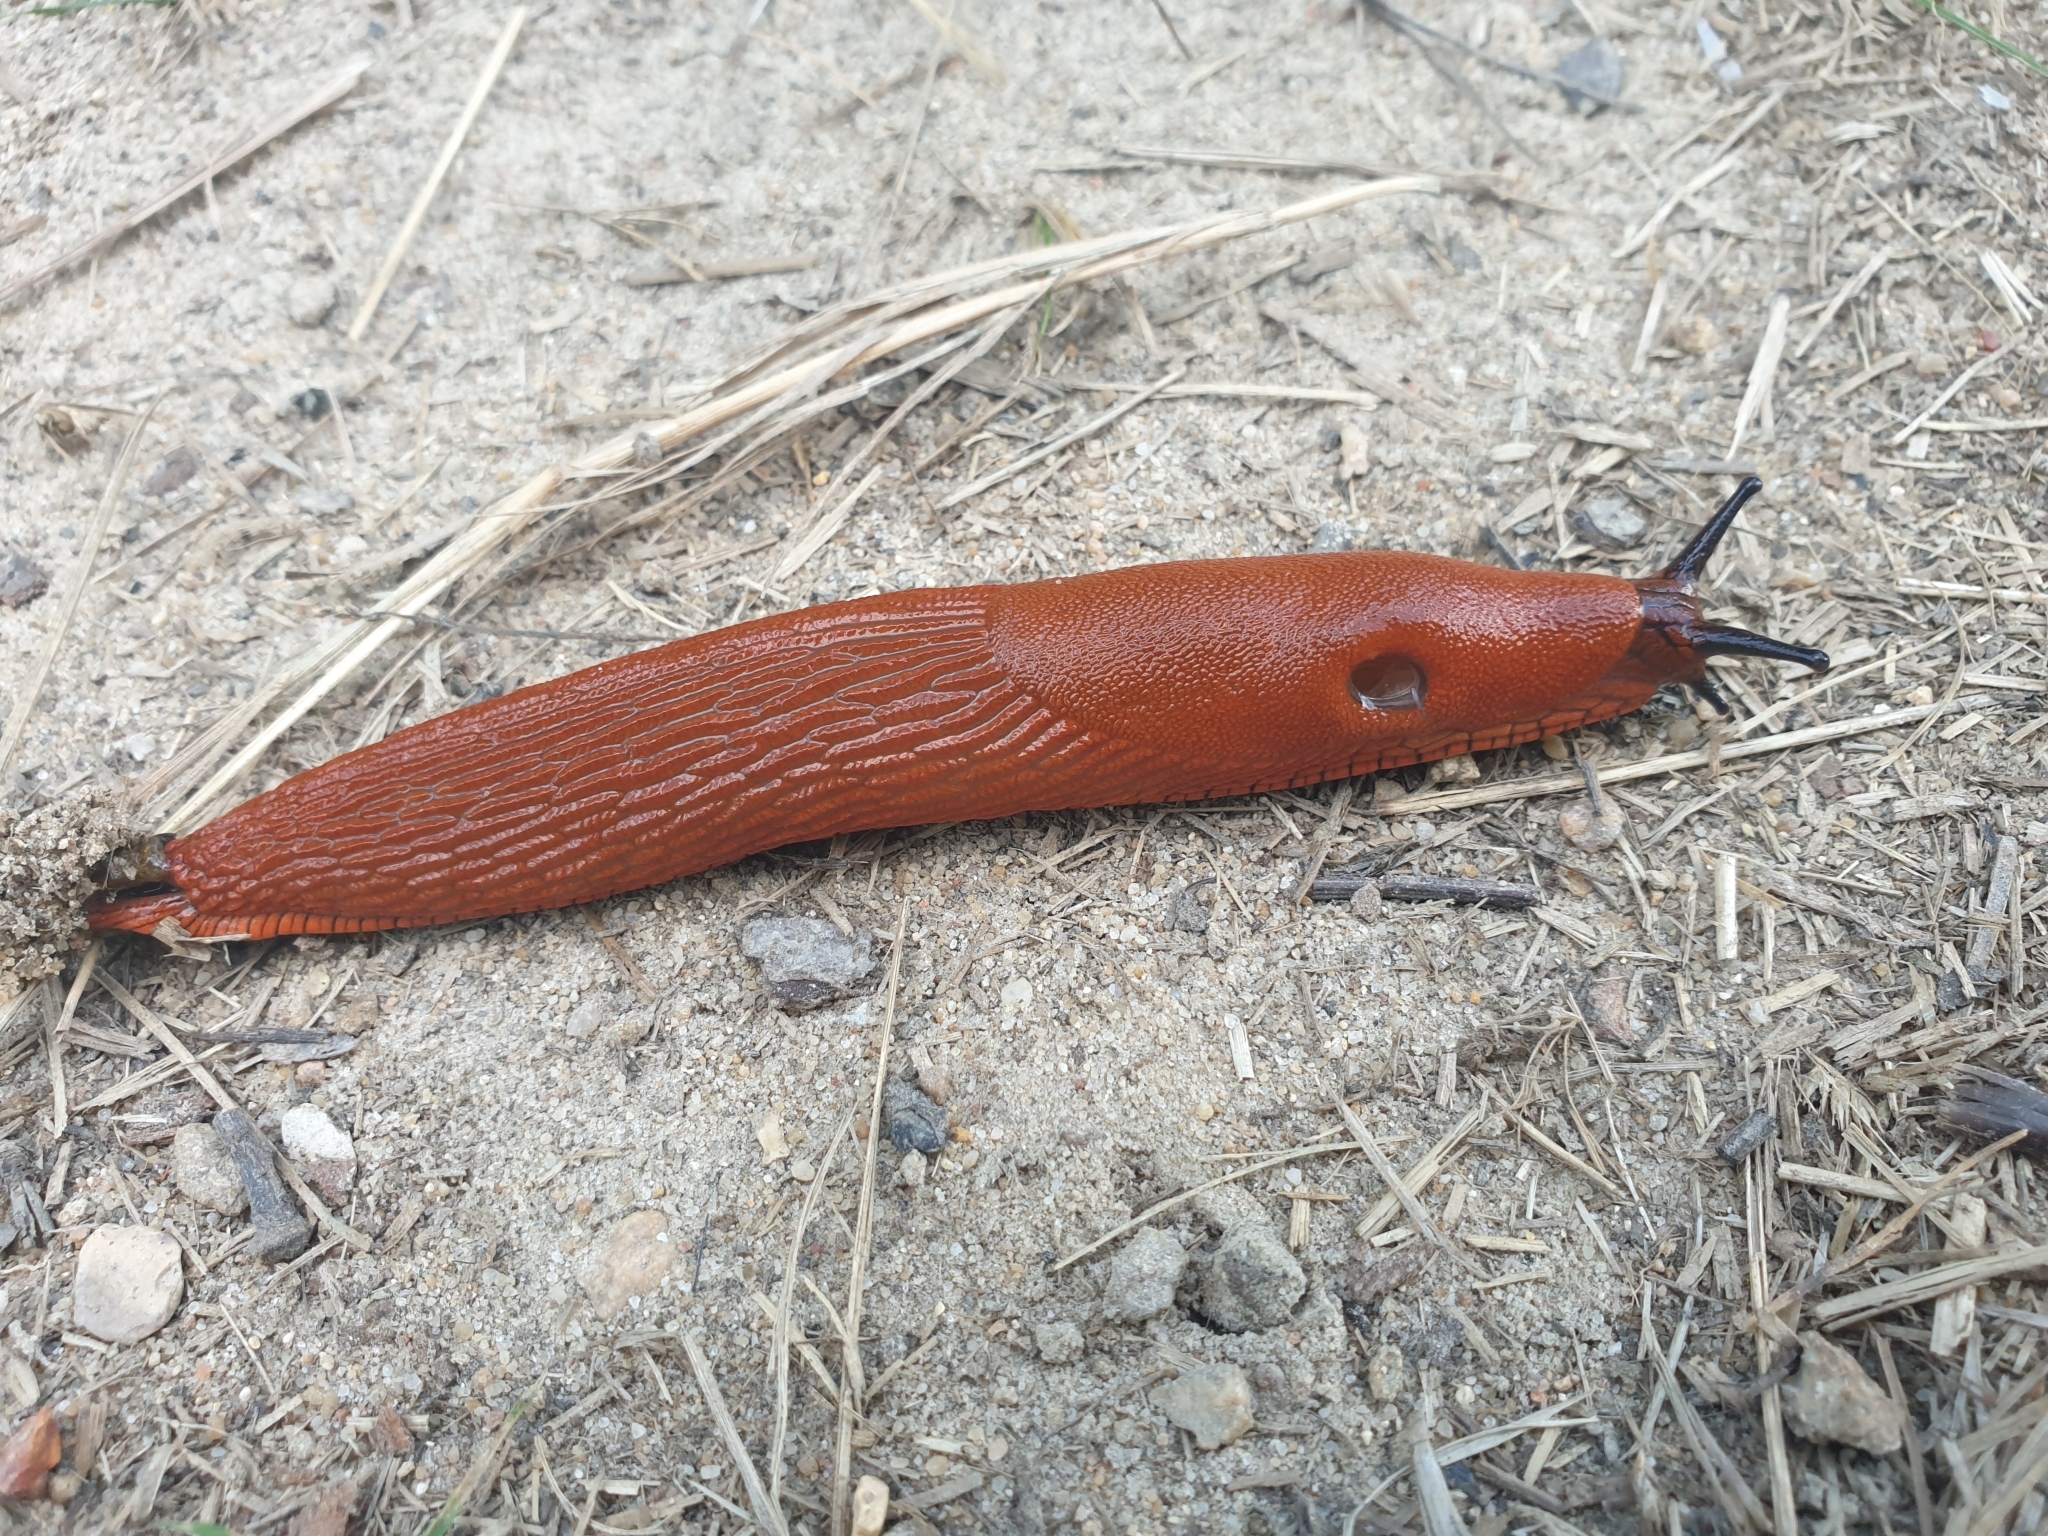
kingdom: Animalia
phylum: Mollusca
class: Gastropoda
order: Stylommatophora
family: Arionidae
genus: Arion
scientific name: Arion rufus
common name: Chocolate arion
